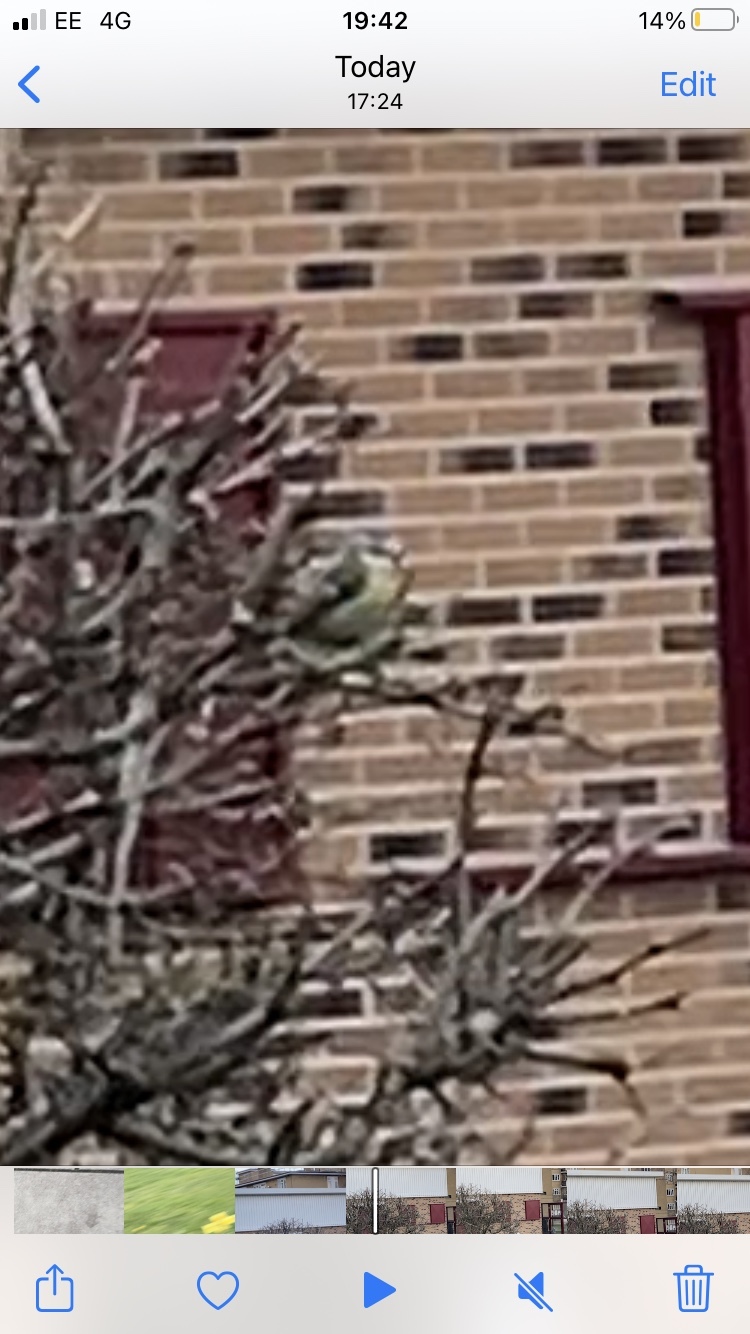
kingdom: Animalia
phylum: Chordata
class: Aves
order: Passeriformes
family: Paridae
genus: Cyanistes
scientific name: Cyanistes caeruleus
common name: Eurasian blue tit
